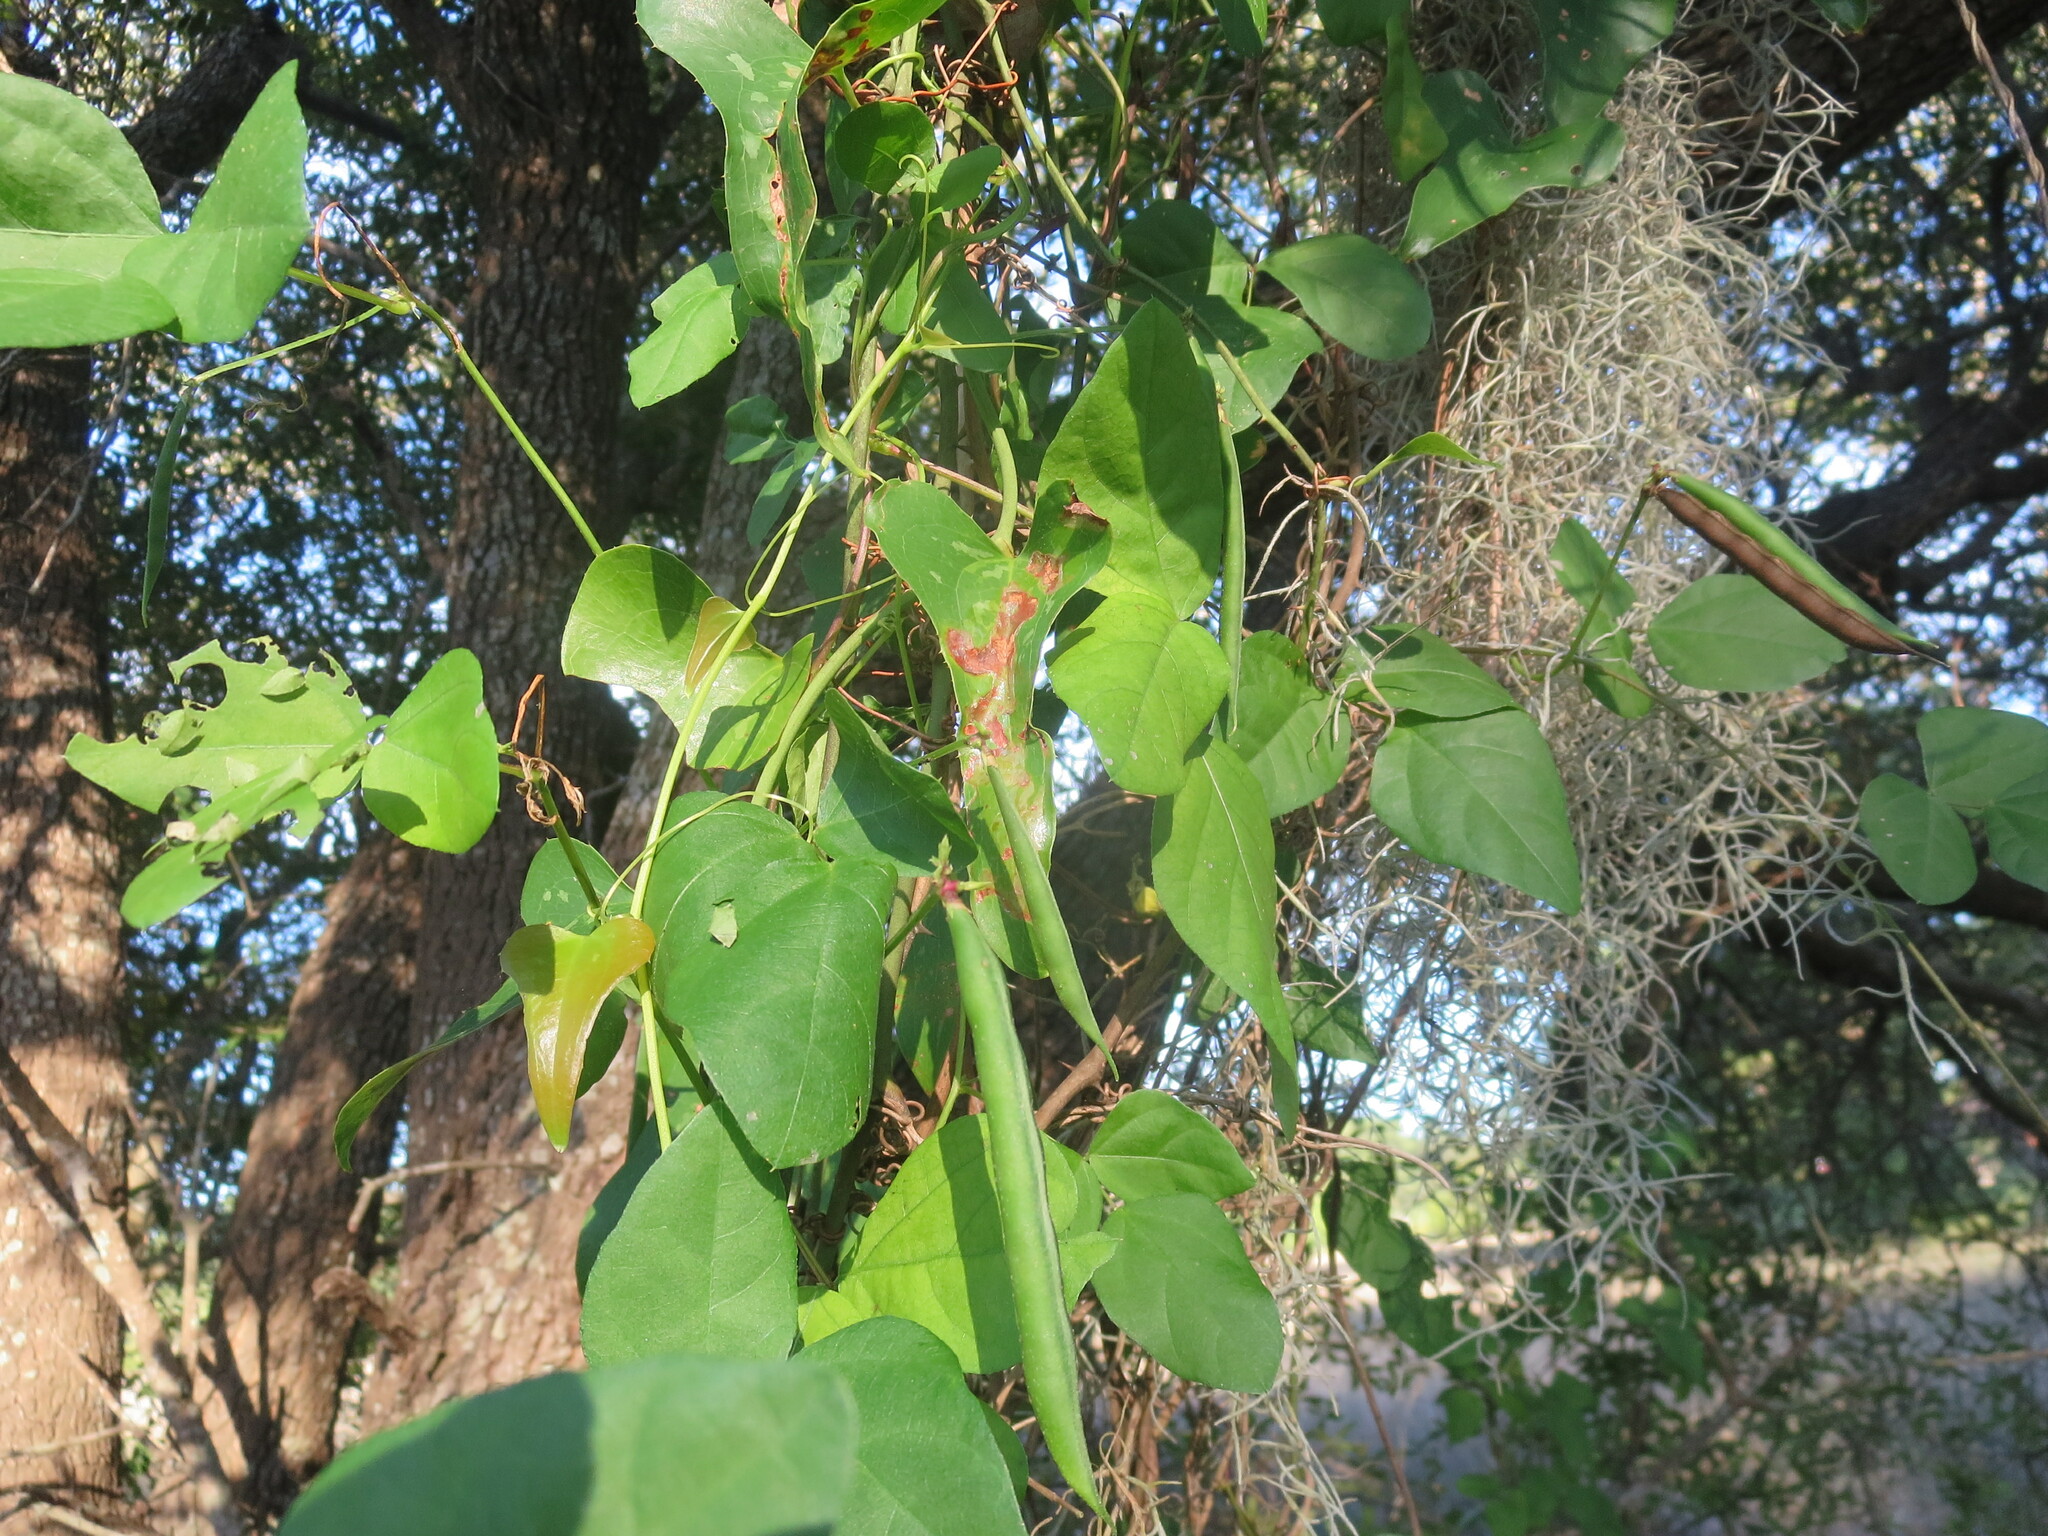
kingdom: Plantae
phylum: Tracheophyta
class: Magnoliopsida
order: Fabales
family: Fabaceae
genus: Strophostyles
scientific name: Strophostyles helvola
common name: Trailing wild bean
